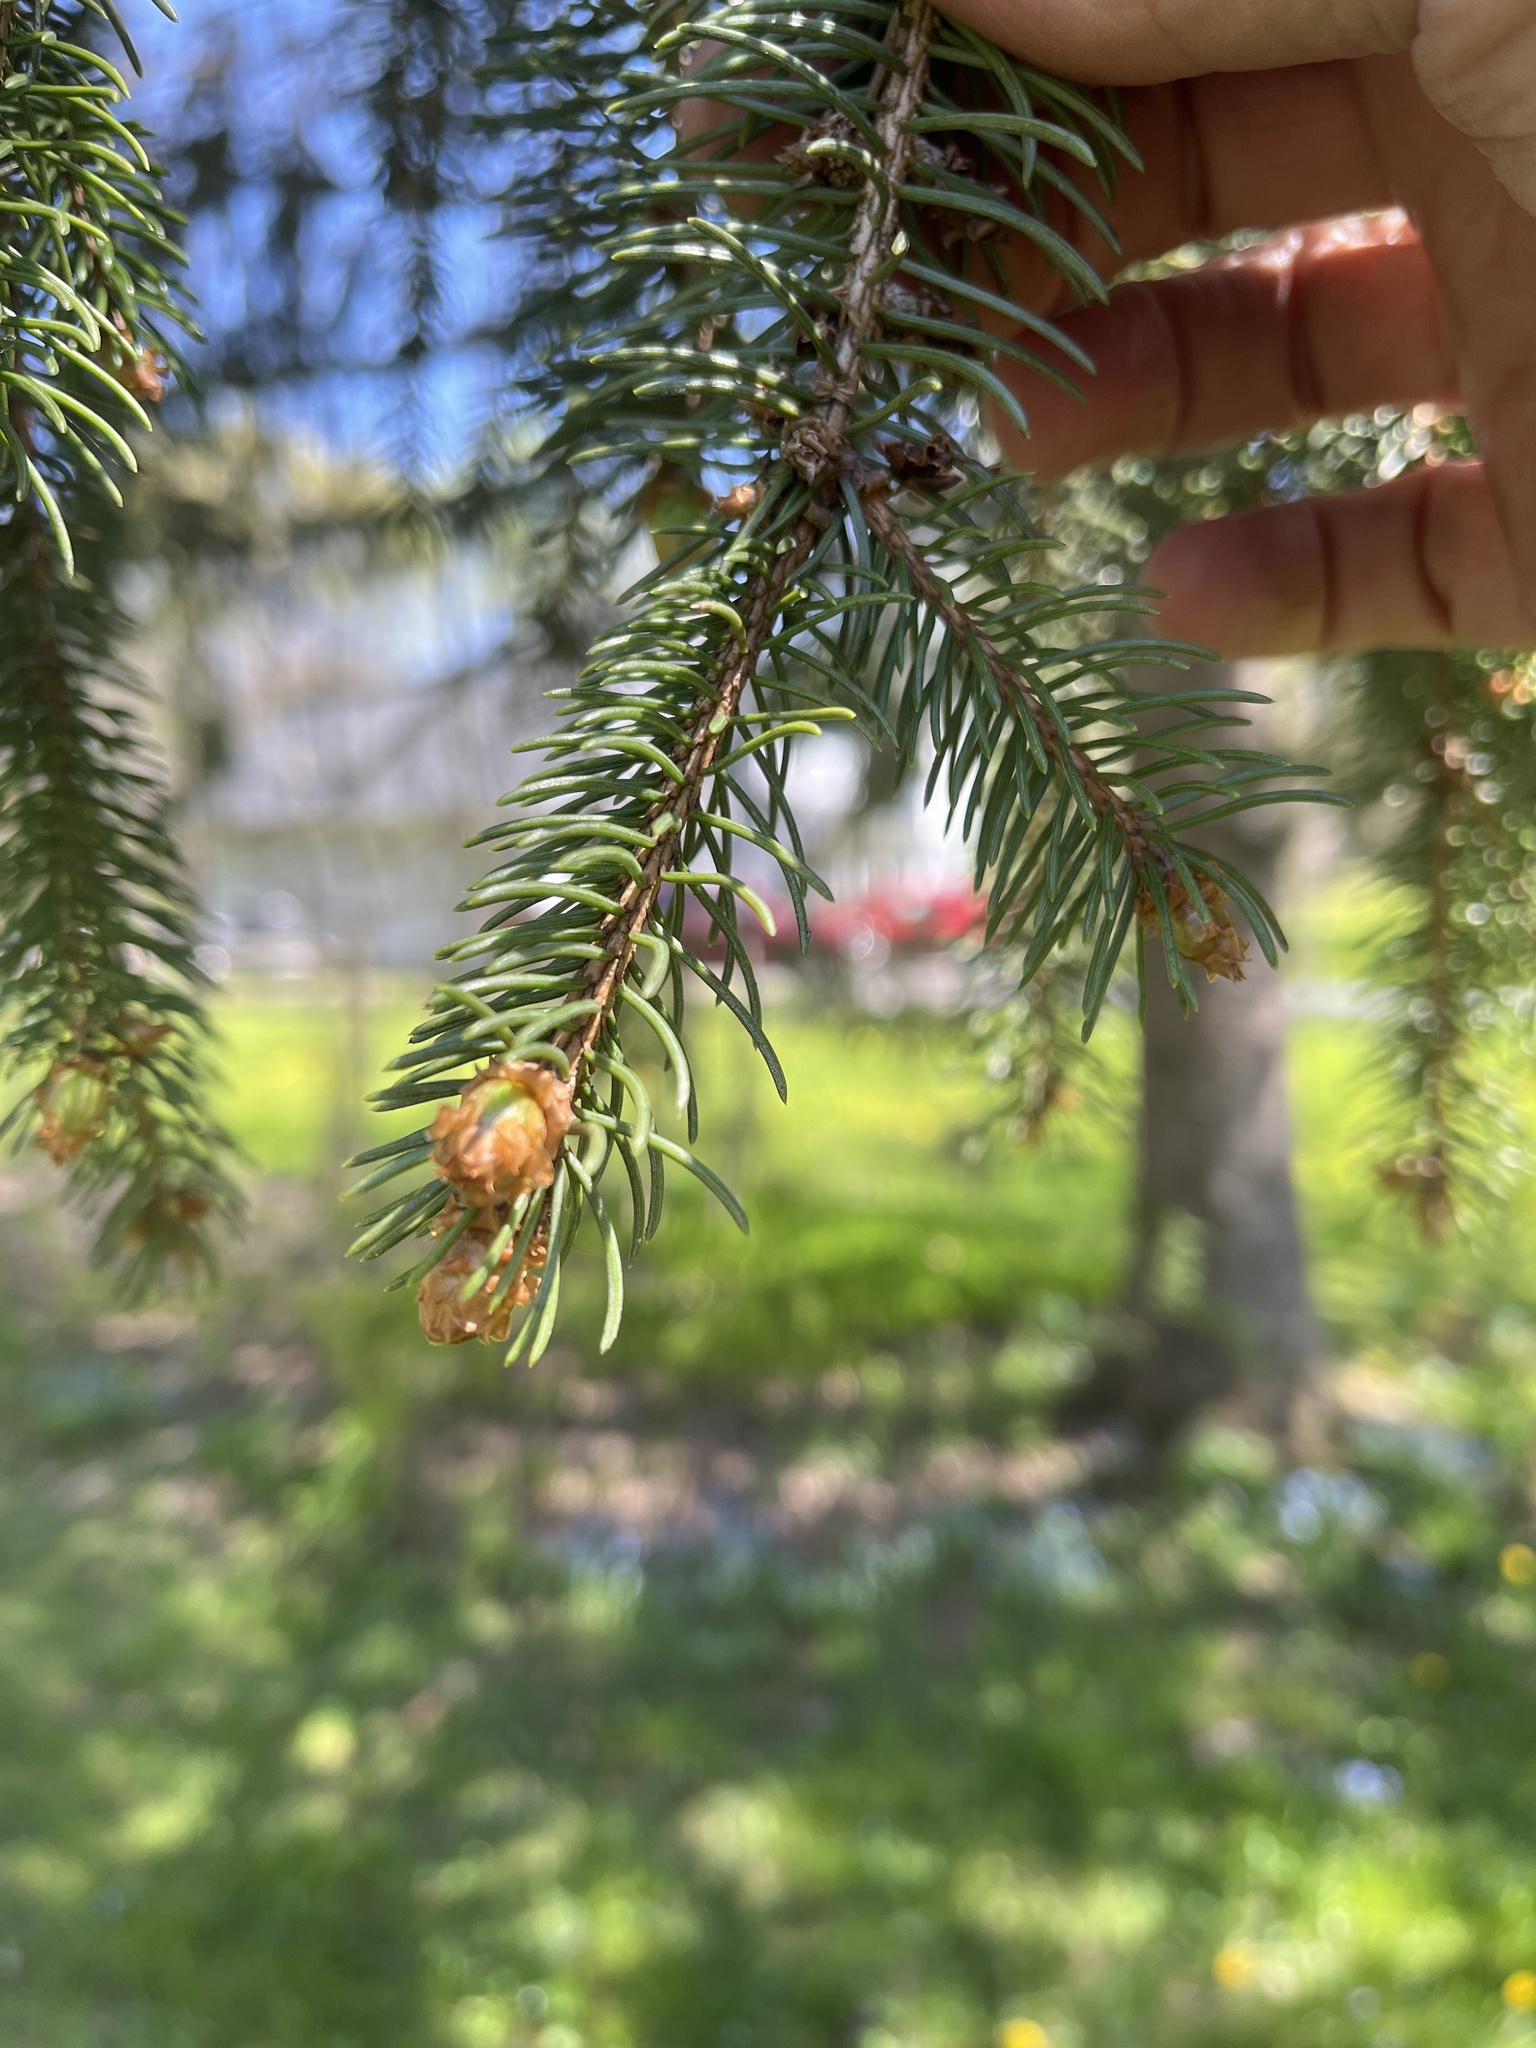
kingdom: Plantae
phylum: Tracheophyta
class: Pinopsida
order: Pinales
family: Pinaceae
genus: Picea
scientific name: Picea abies
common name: Norway spruce
